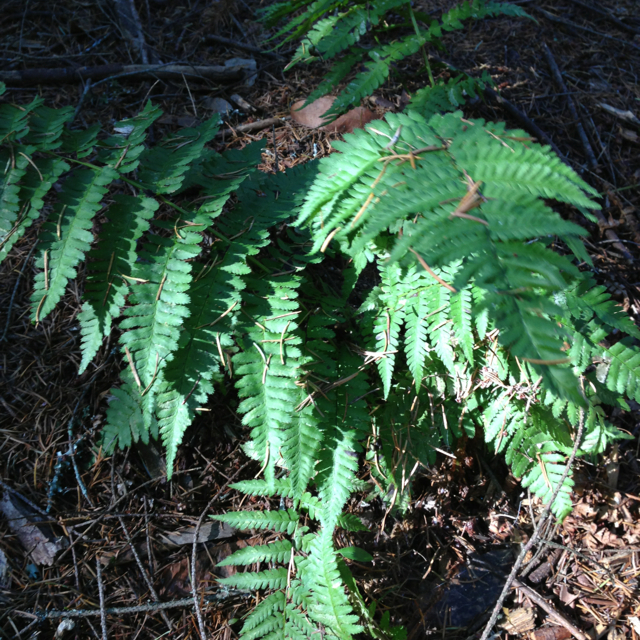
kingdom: Plantae
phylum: Tracheophyta
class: Polypodiopsida
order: Polypodiales
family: Dryopteridaceae
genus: Dryopteris
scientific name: Dryopteris arguta
